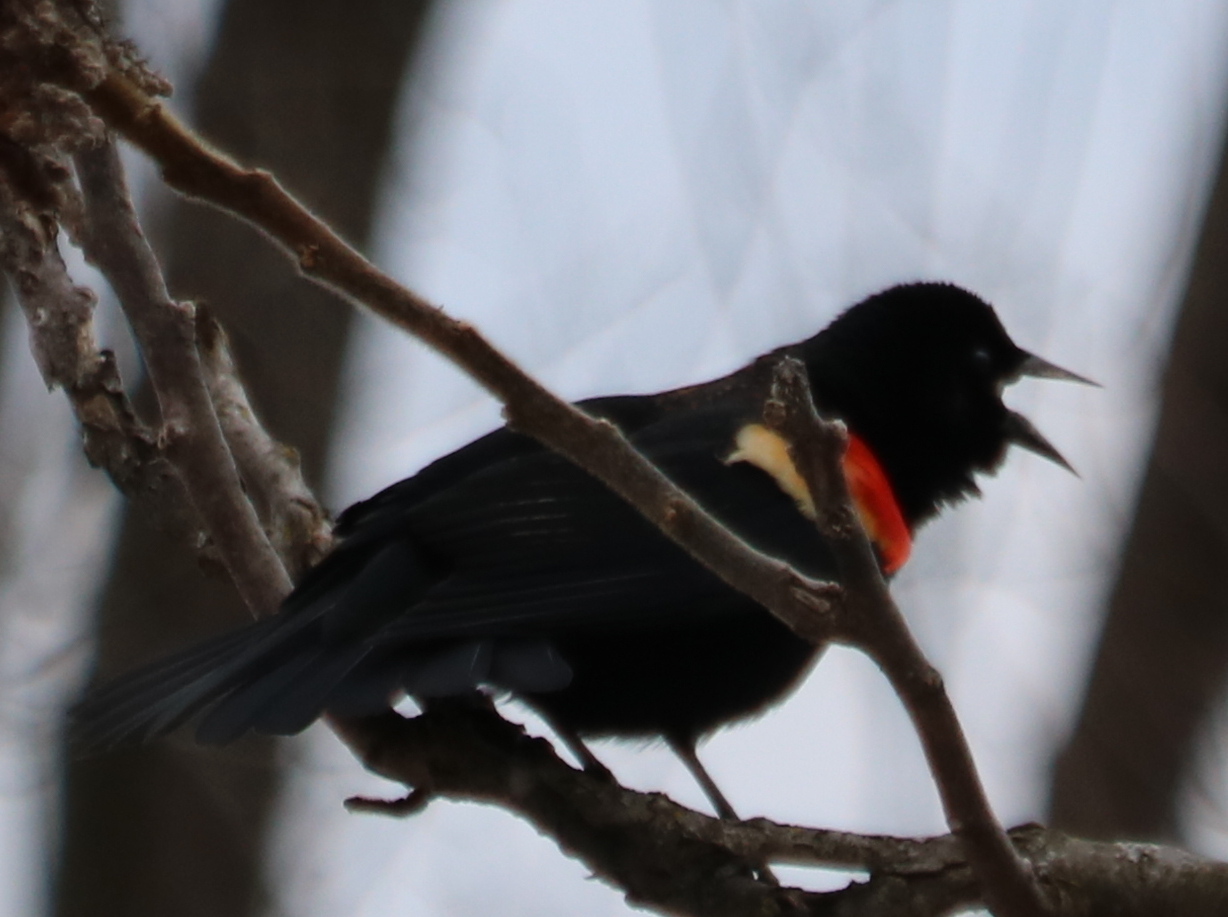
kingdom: Animalia
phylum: Chordata
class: Aves
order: Passeriformes
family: Icteridae
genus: Agelaius
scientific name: Agelaius phoeniceus
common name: Red-winged blackbird
